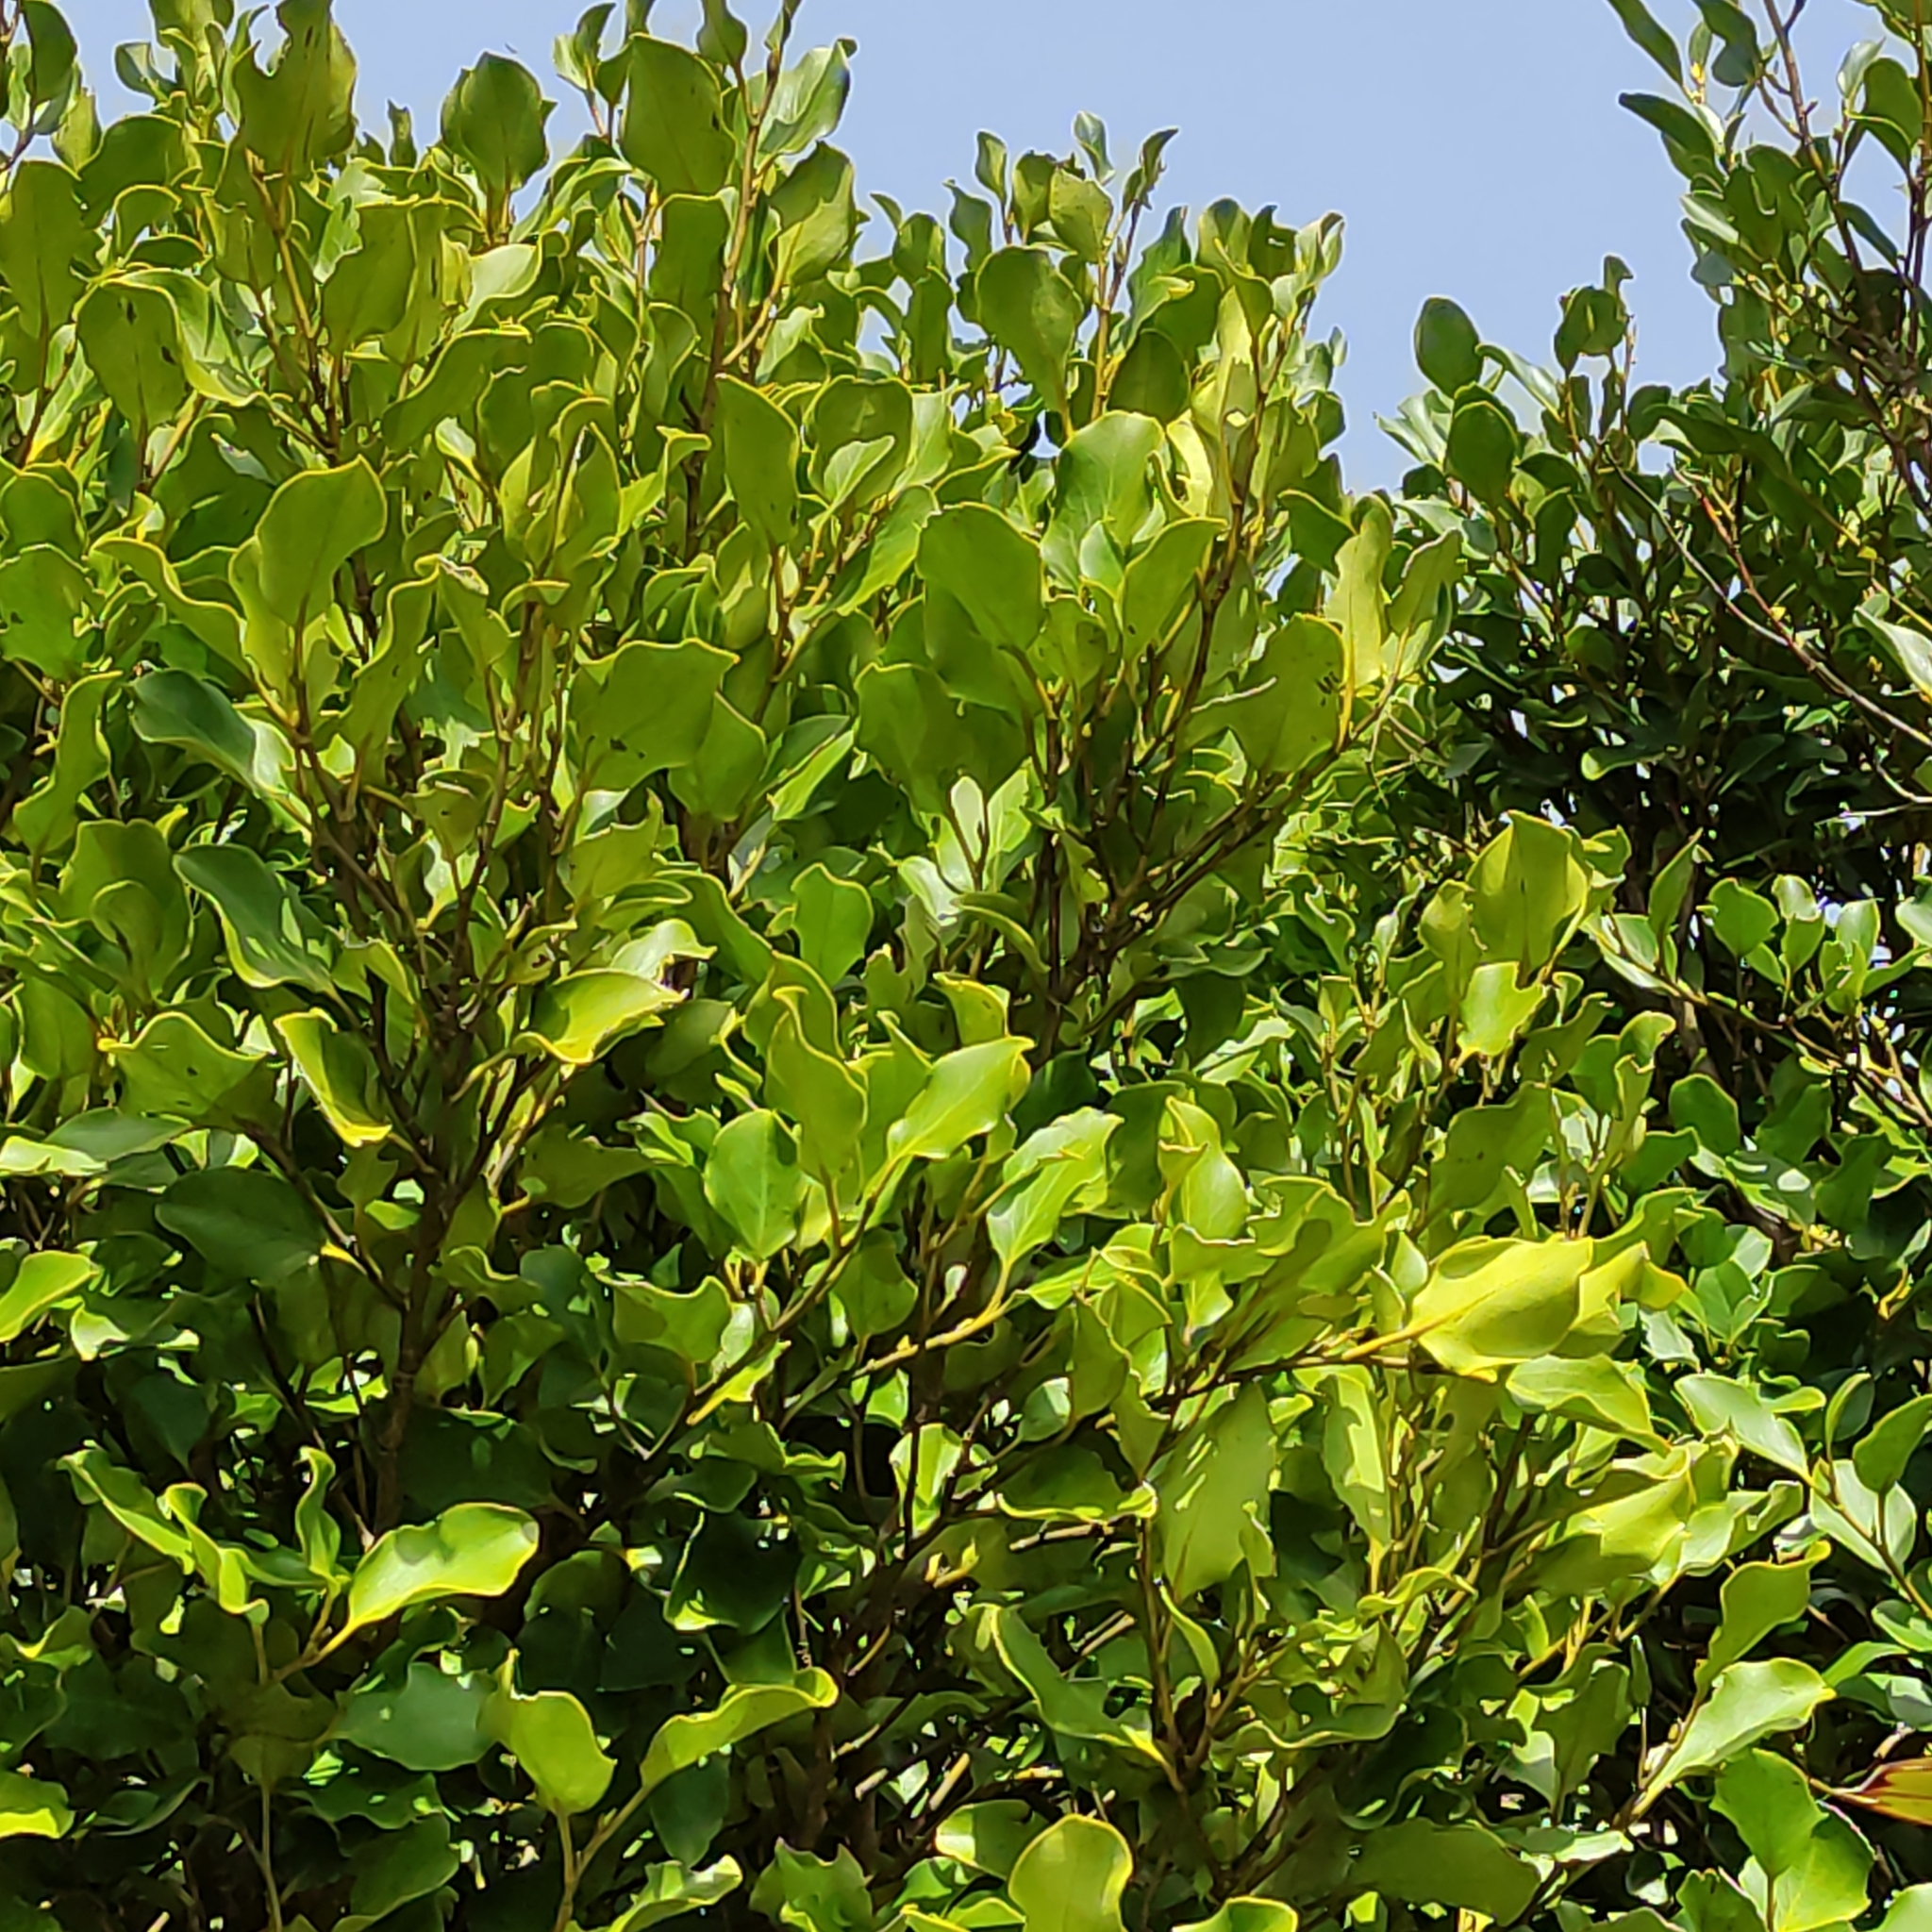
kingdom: Plantae
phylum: Tracheophyta
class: Magnoliopsida
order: Apiales
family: Griseliniaceae
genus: Griselinia
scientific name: Griselinia littoralis
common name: New zealand broadleaf
